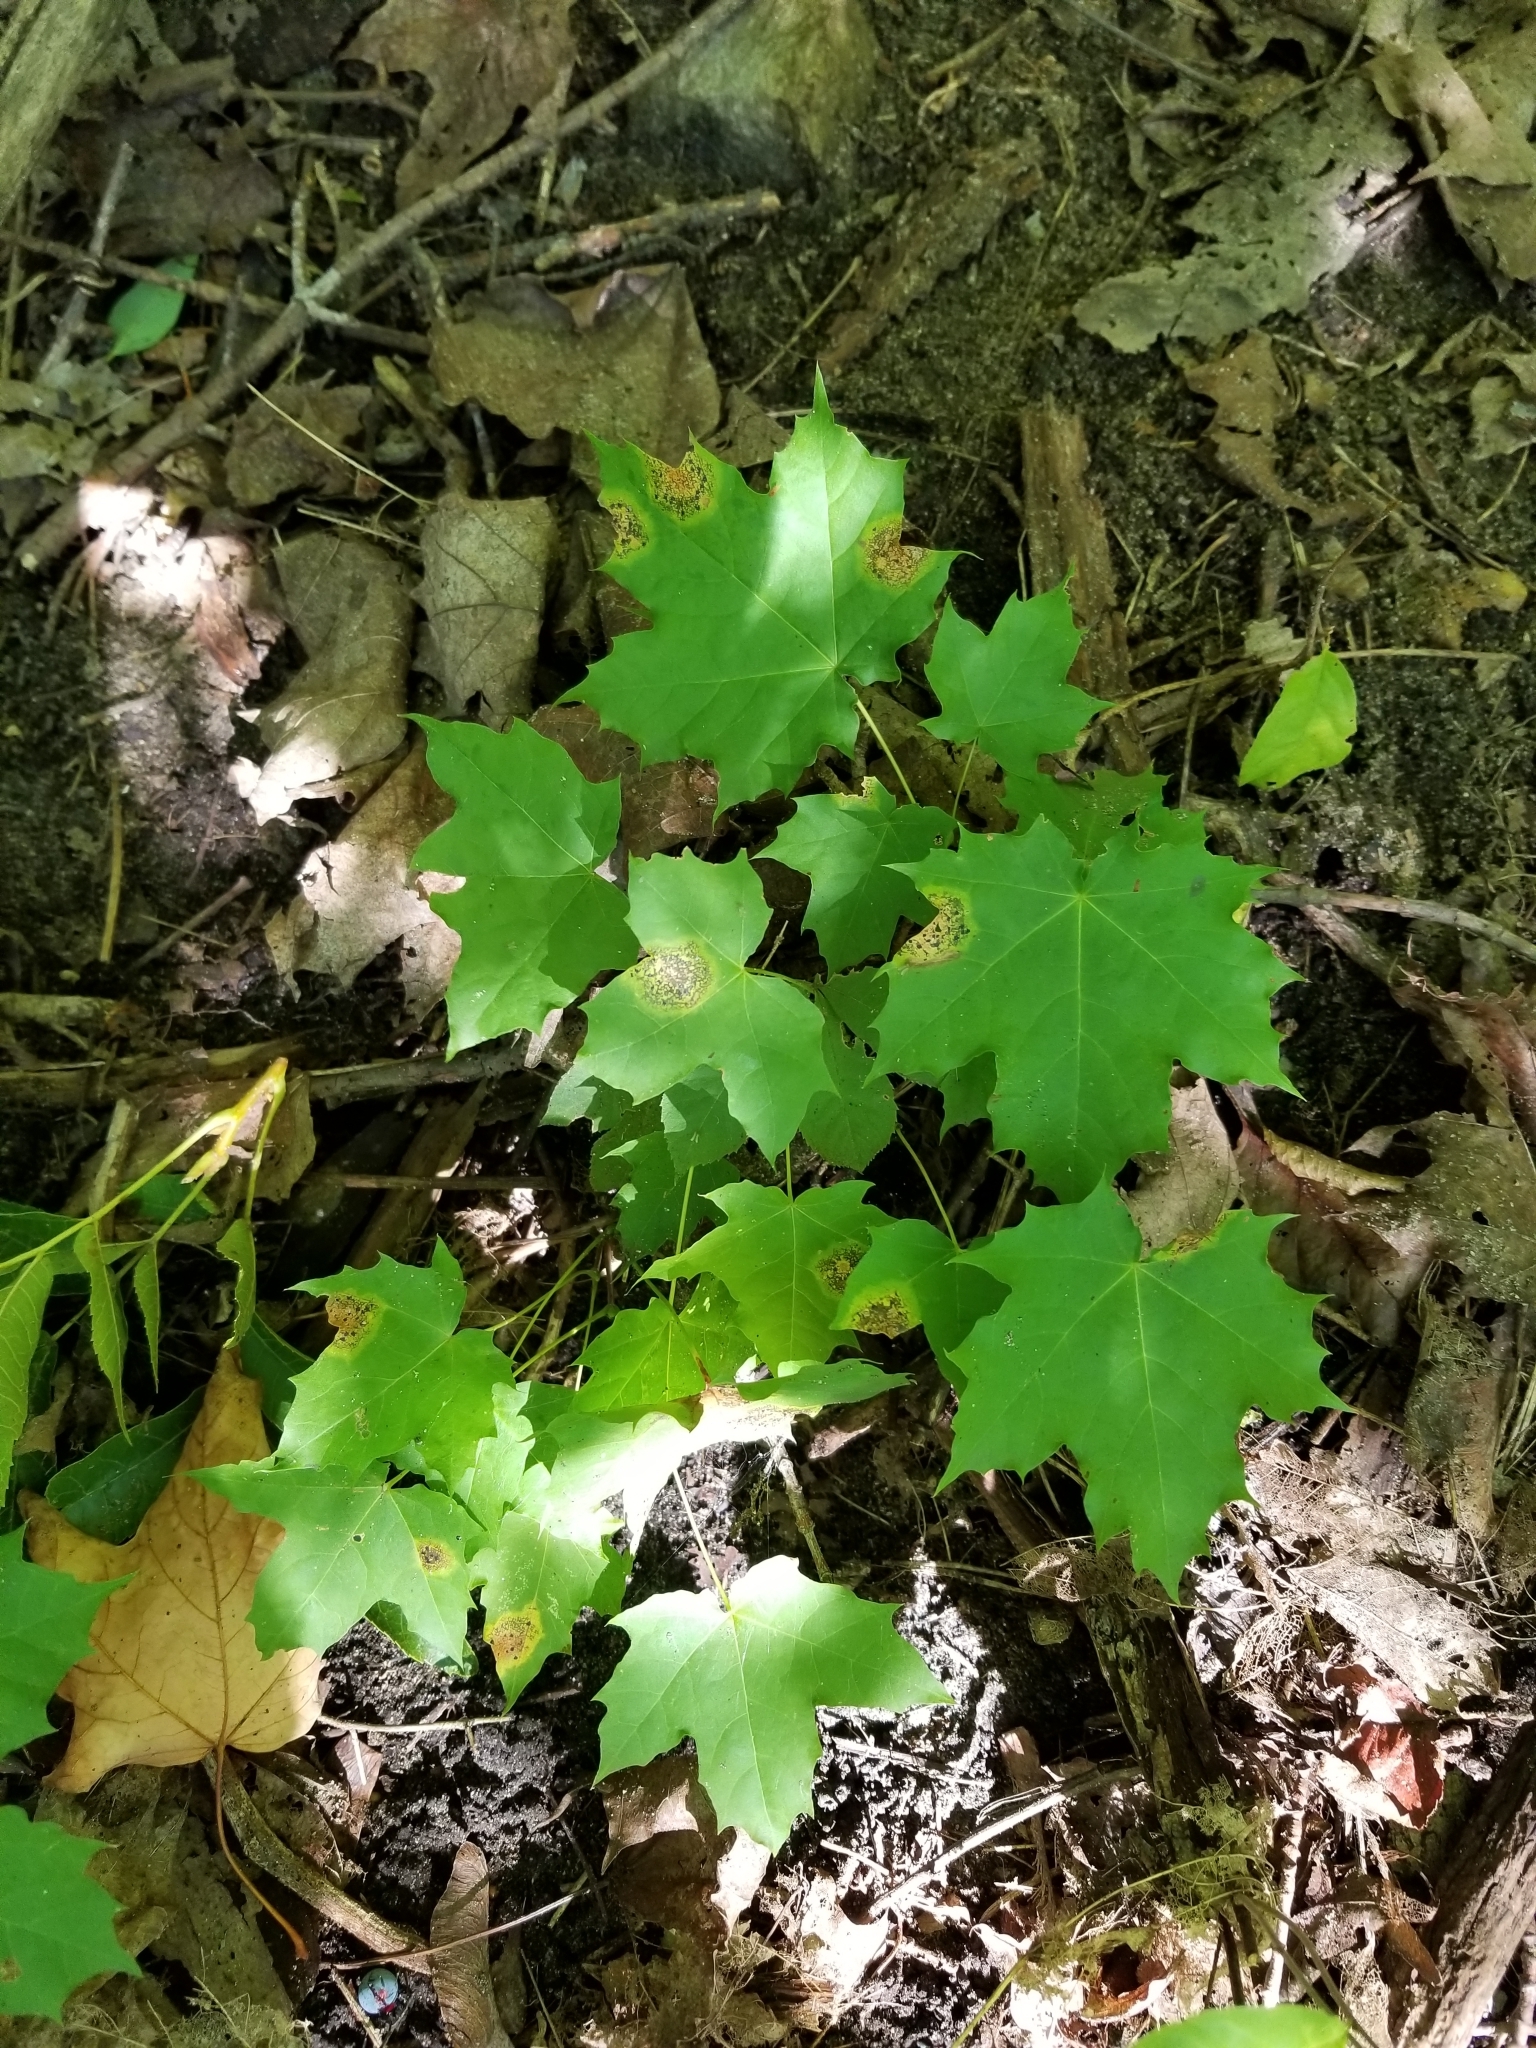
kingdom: Plantae
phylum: Tracheophyta
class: Magnoliopsida
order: Sapindales
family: Sapindaceae
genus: Acer
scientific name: Acer platanoides
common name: Norway maple
